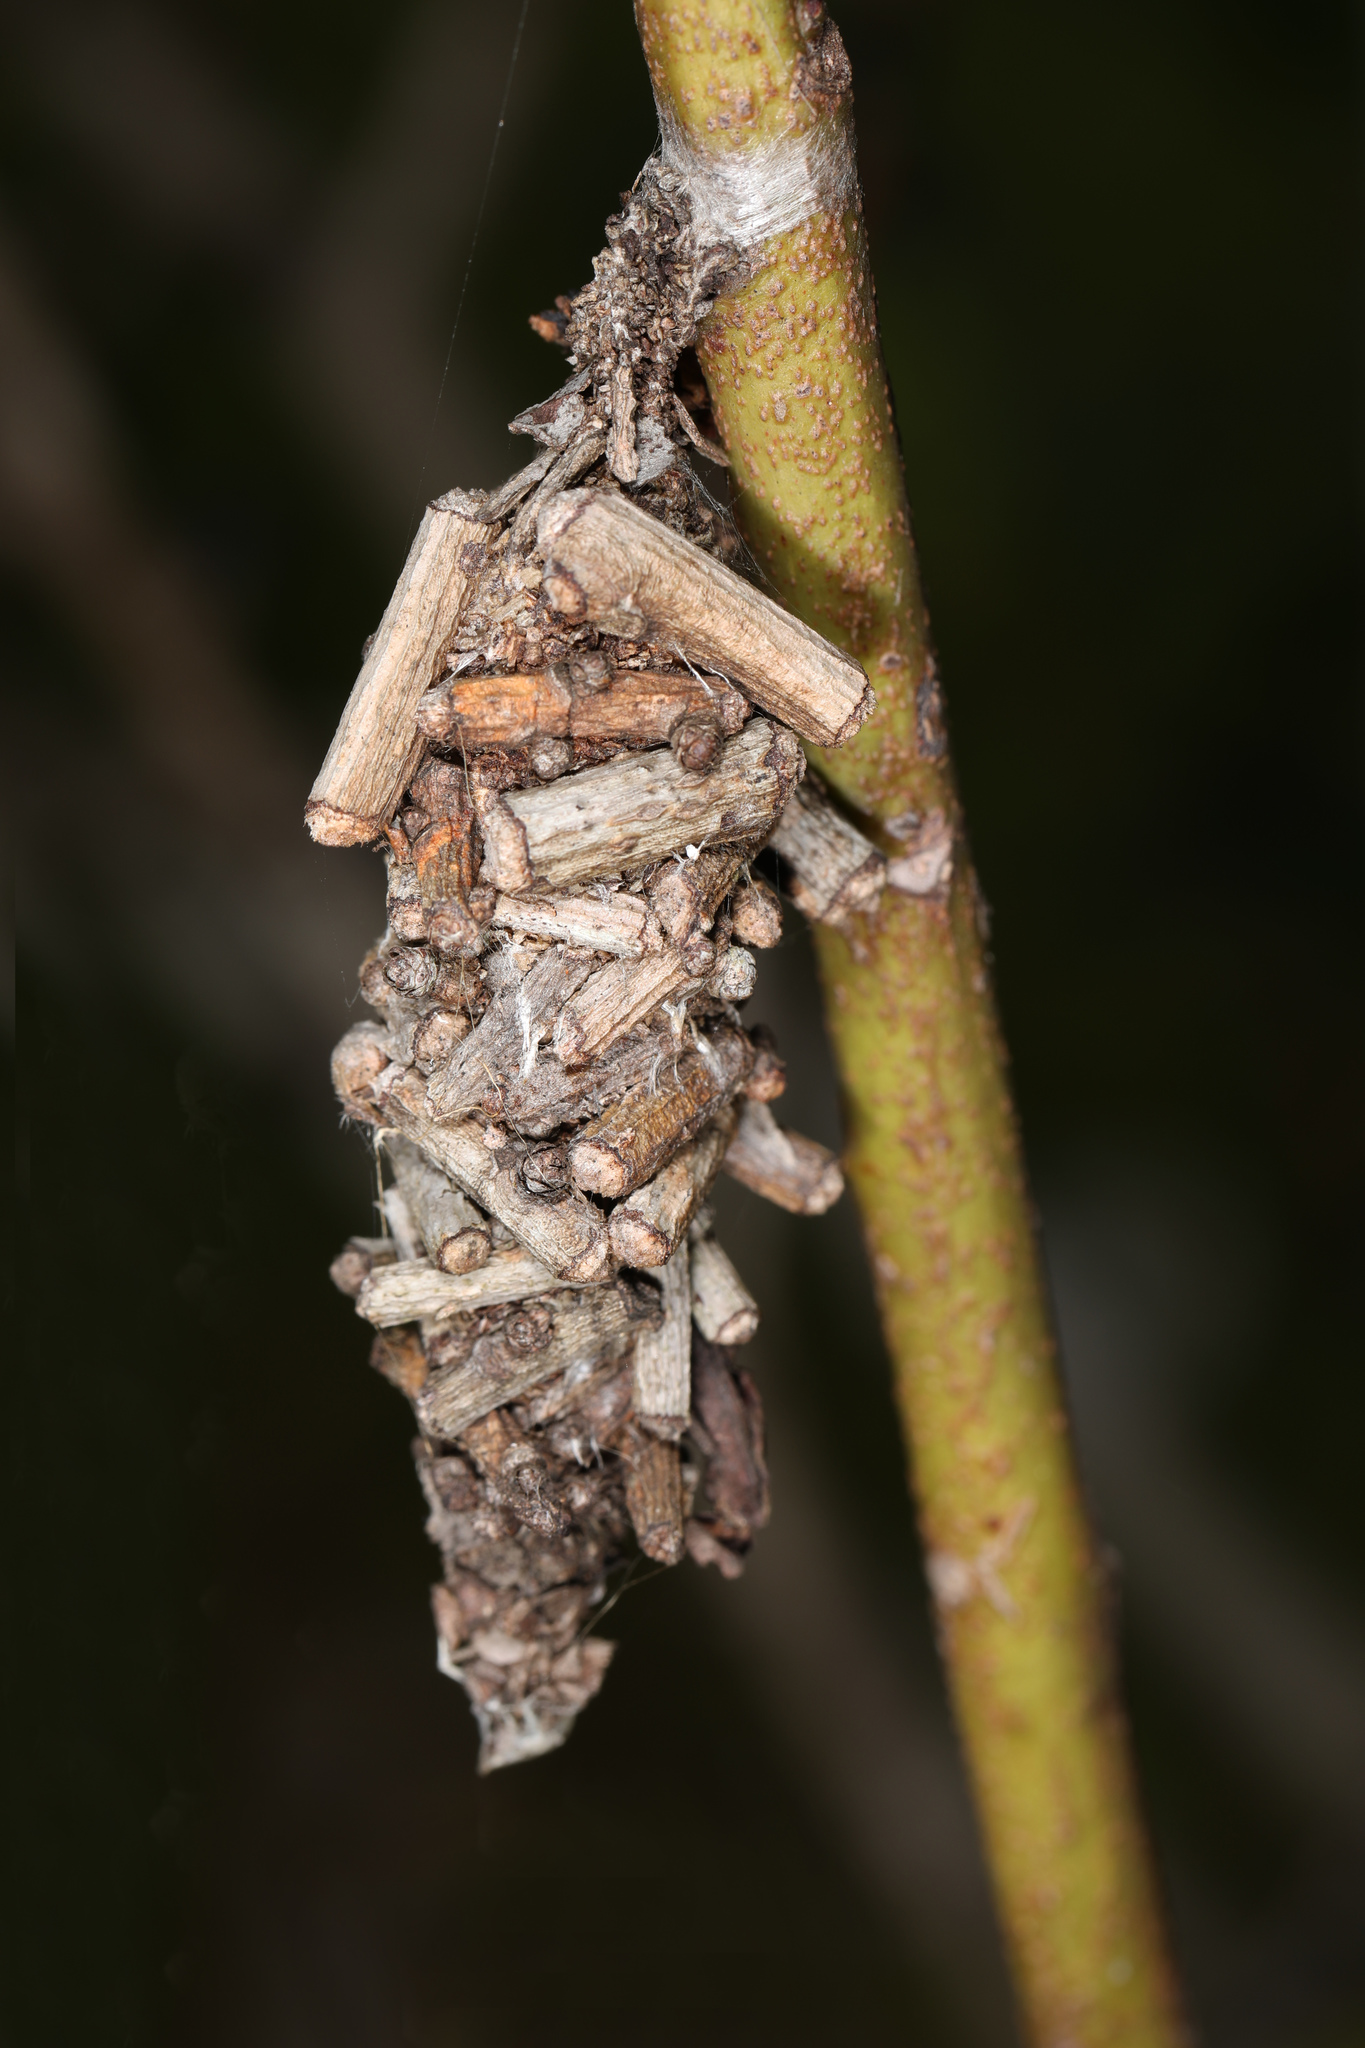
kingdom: Animalia
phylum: Arthropoda
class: Insecta
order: Lepidoptera
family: Psychidae
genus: Oiketicus
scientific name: Oiketicus
